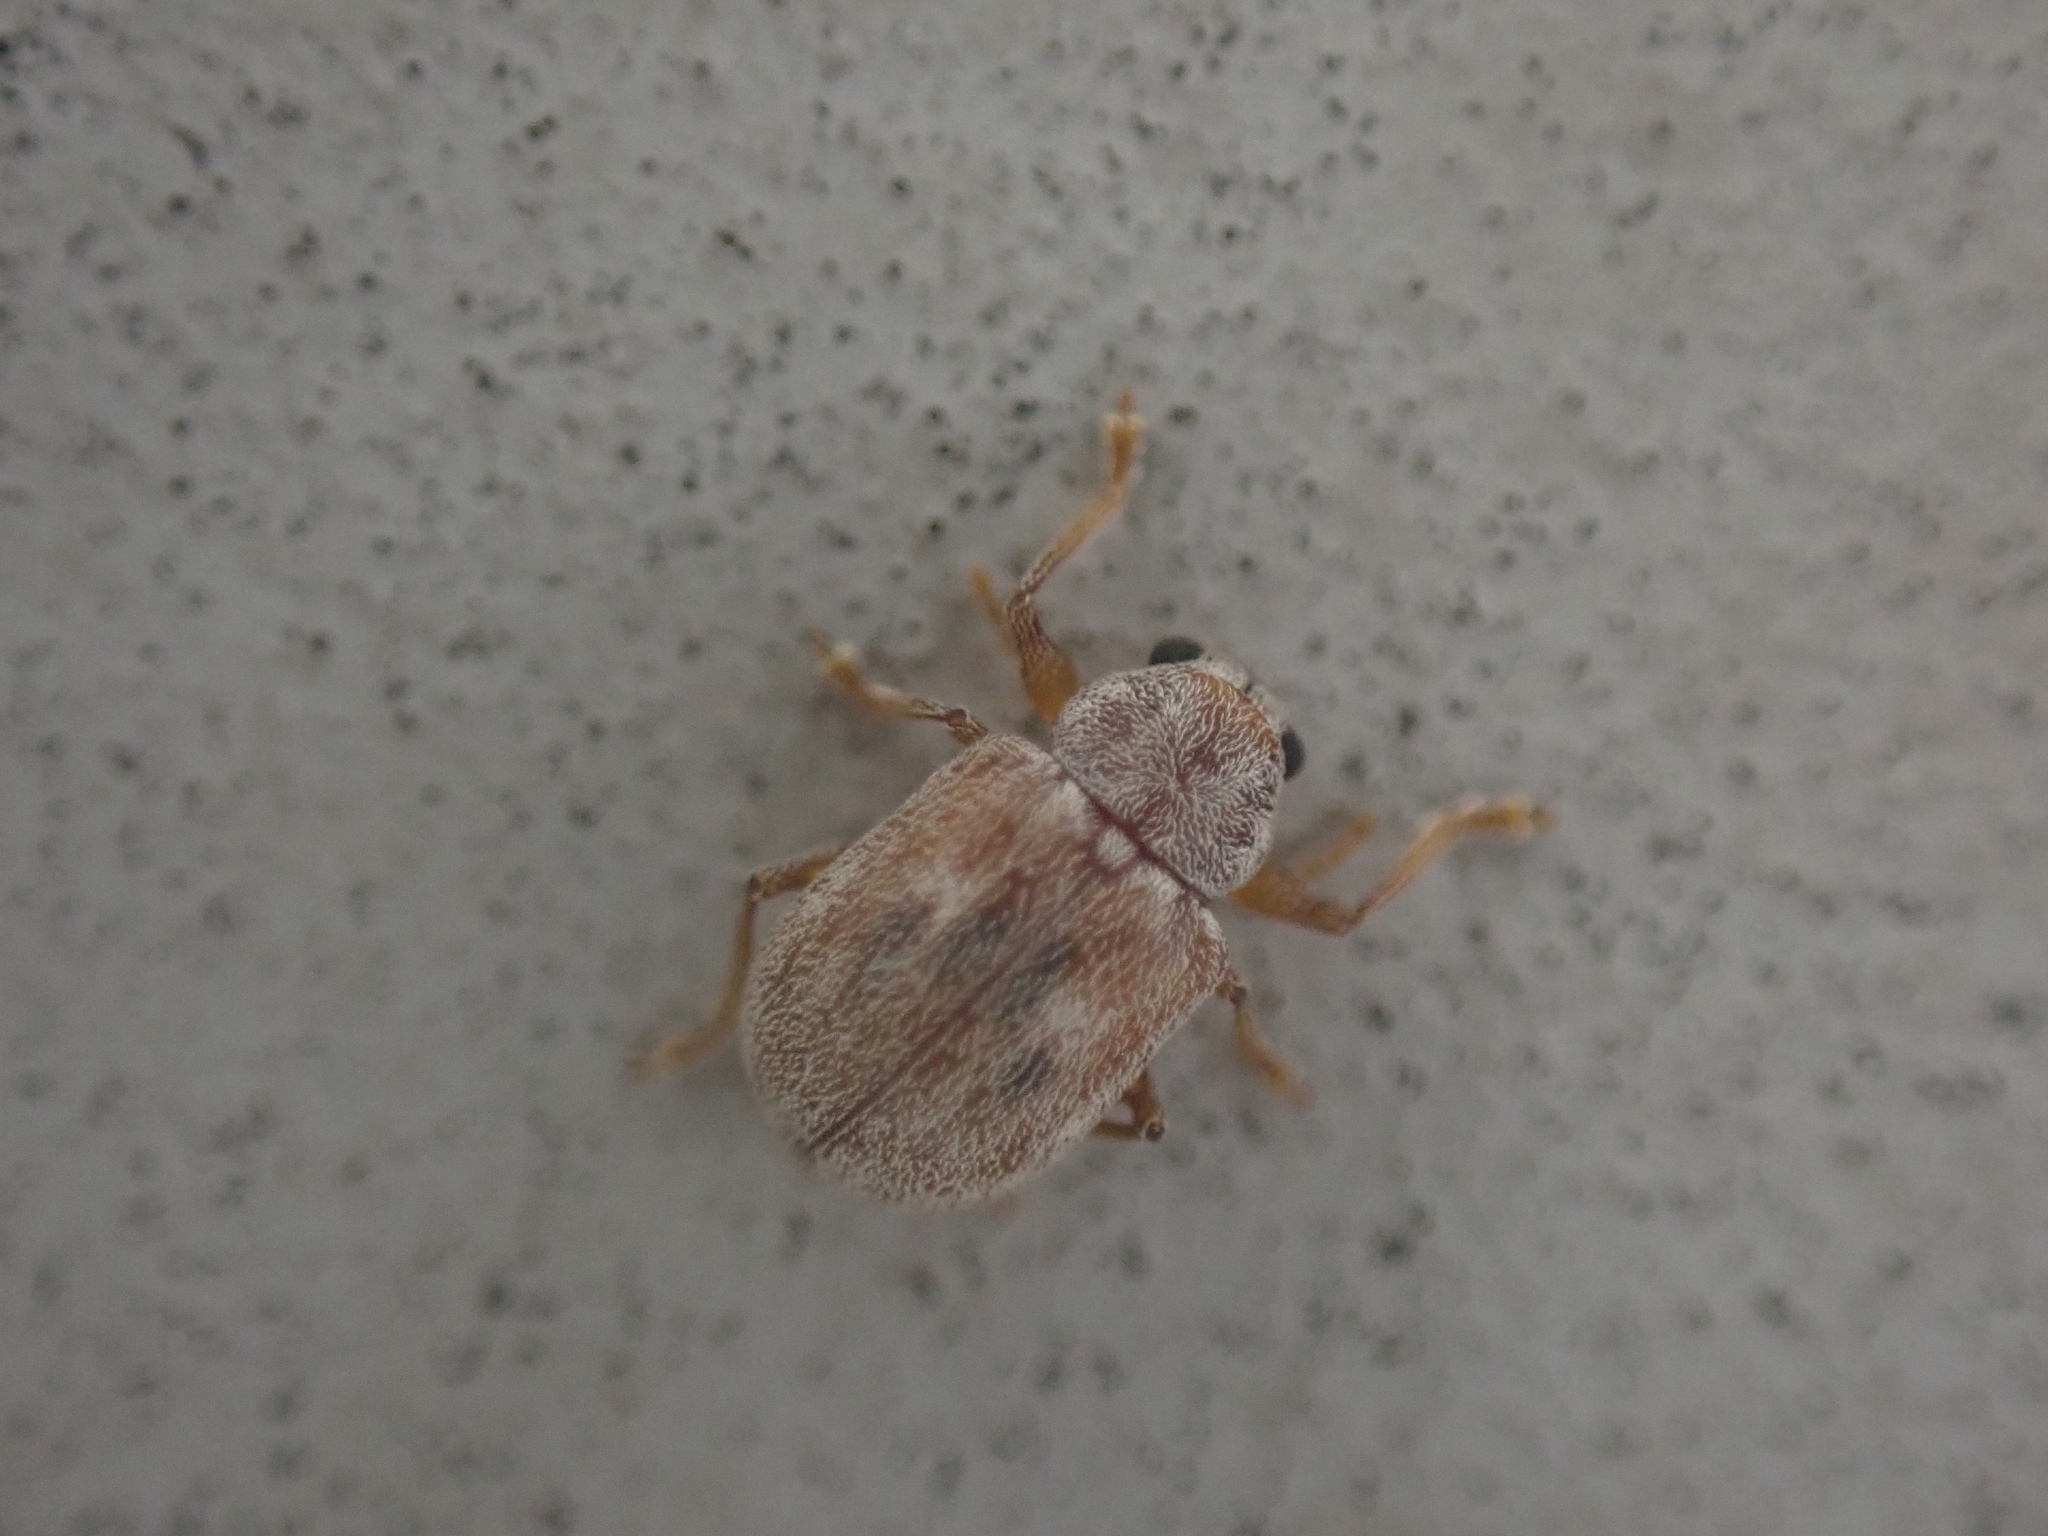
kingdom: Animalia
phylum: Arthropoda
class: Insecta
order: Coleoptera
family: Chrysomelidae
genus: Demotina
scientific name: Demotina modesta
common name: Leaf beetle
